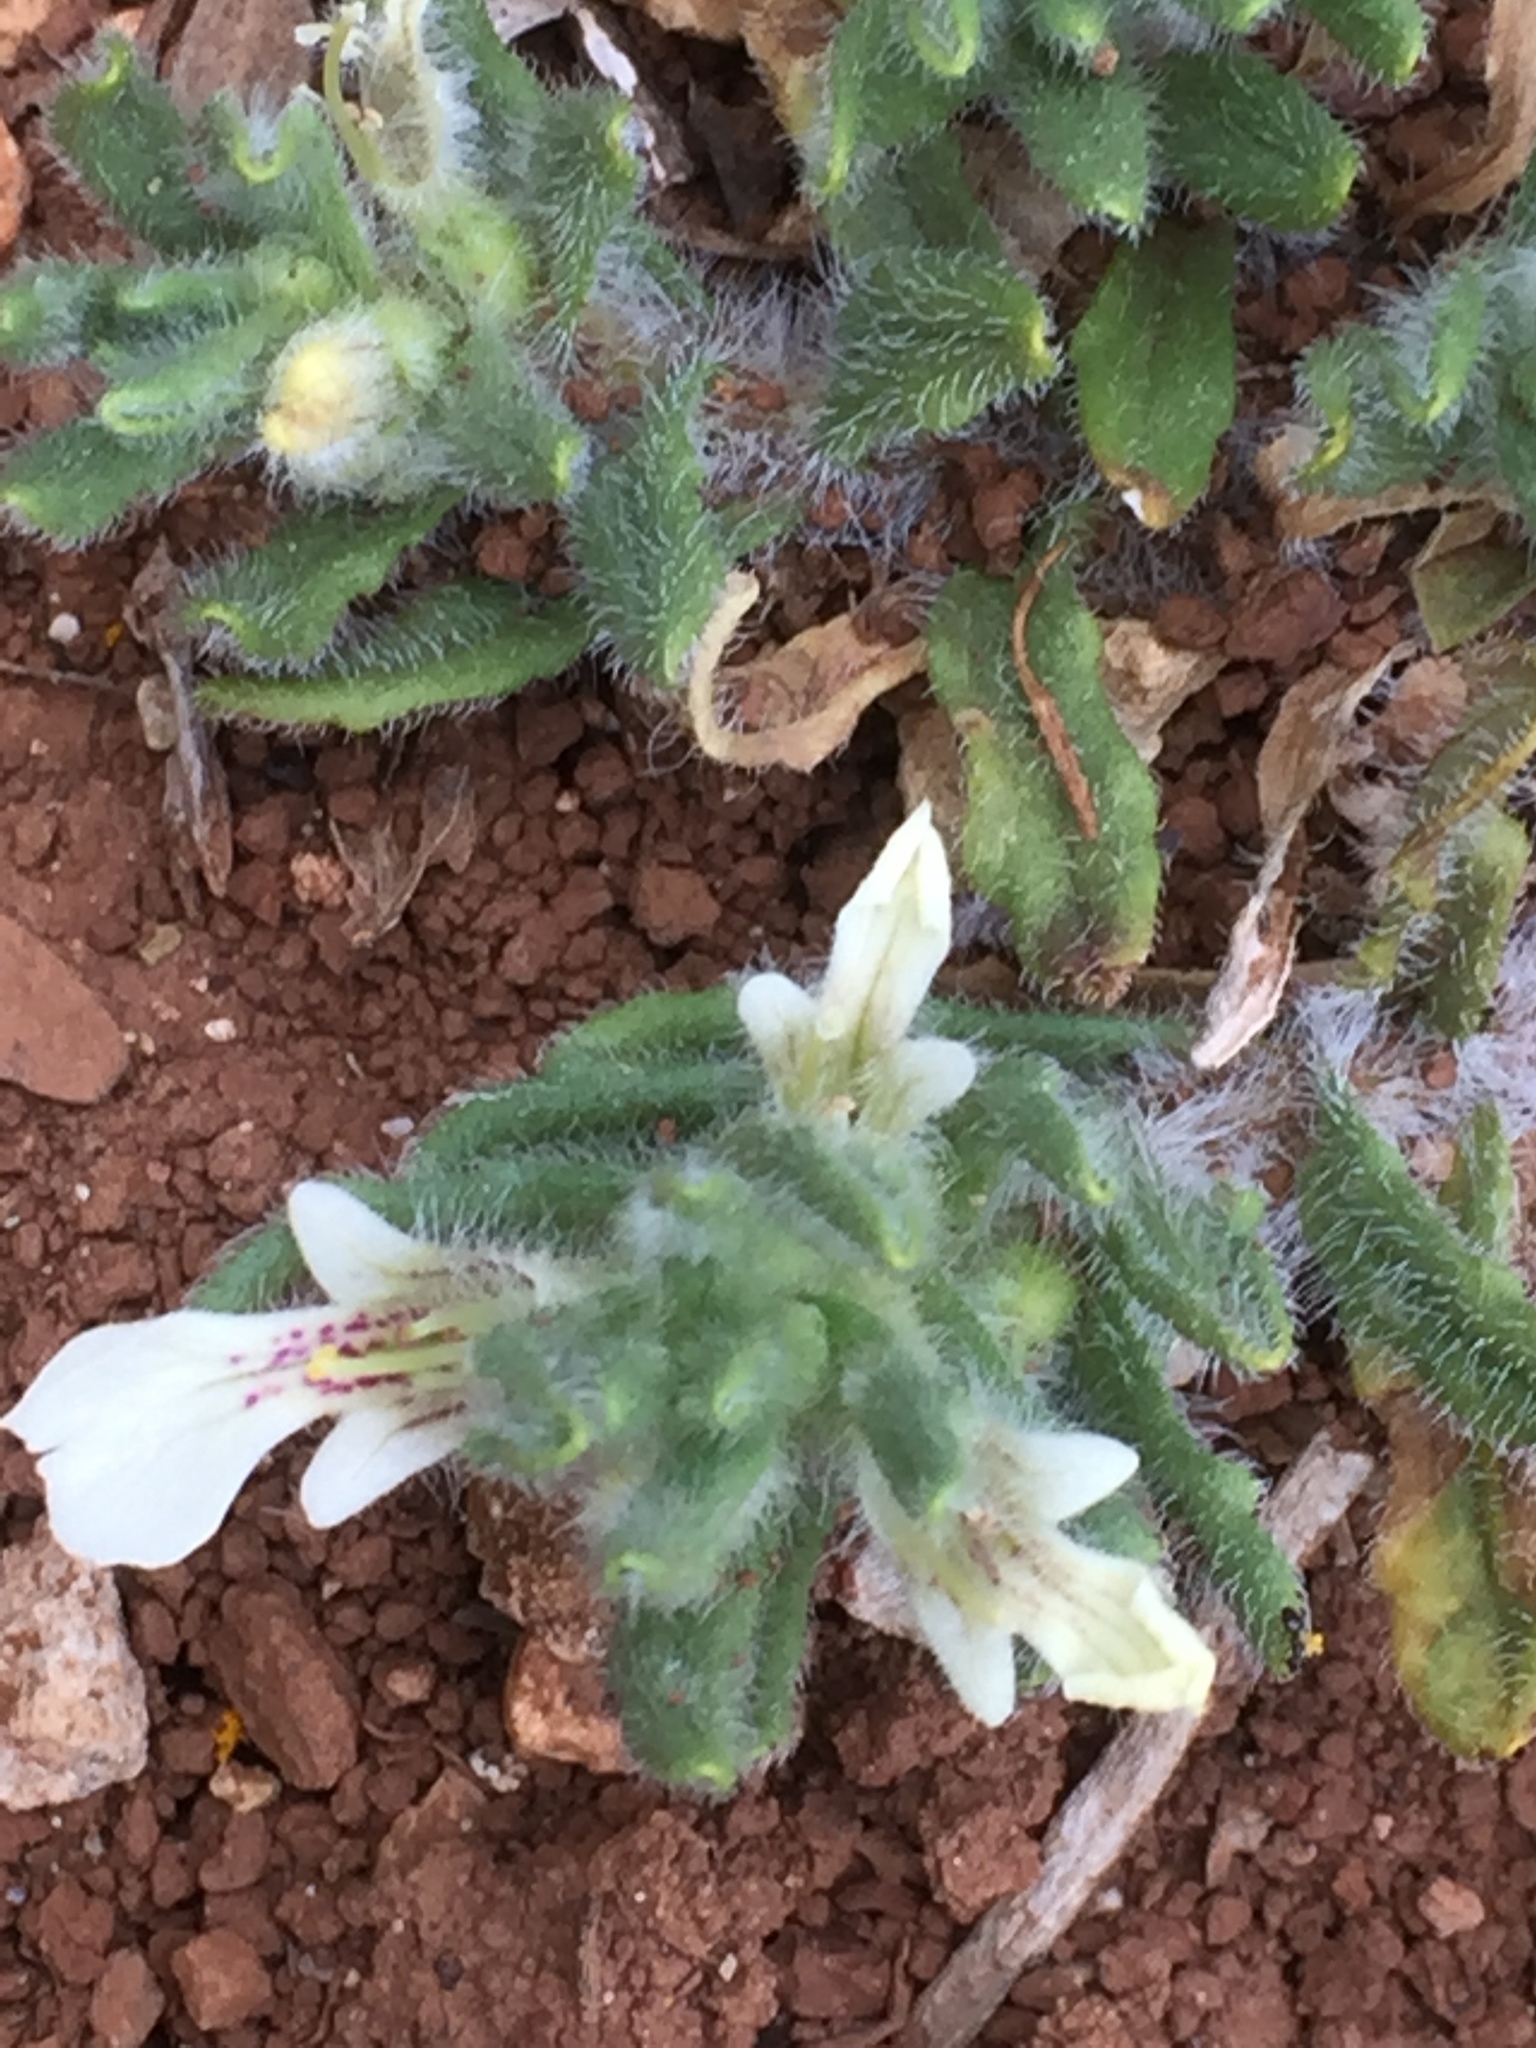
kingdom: Plantae
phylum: Tracheophyta
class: Magnoliopsida
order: Lamiales
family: Lamiaceae
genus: Ajuga
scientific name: Ajuga iva
